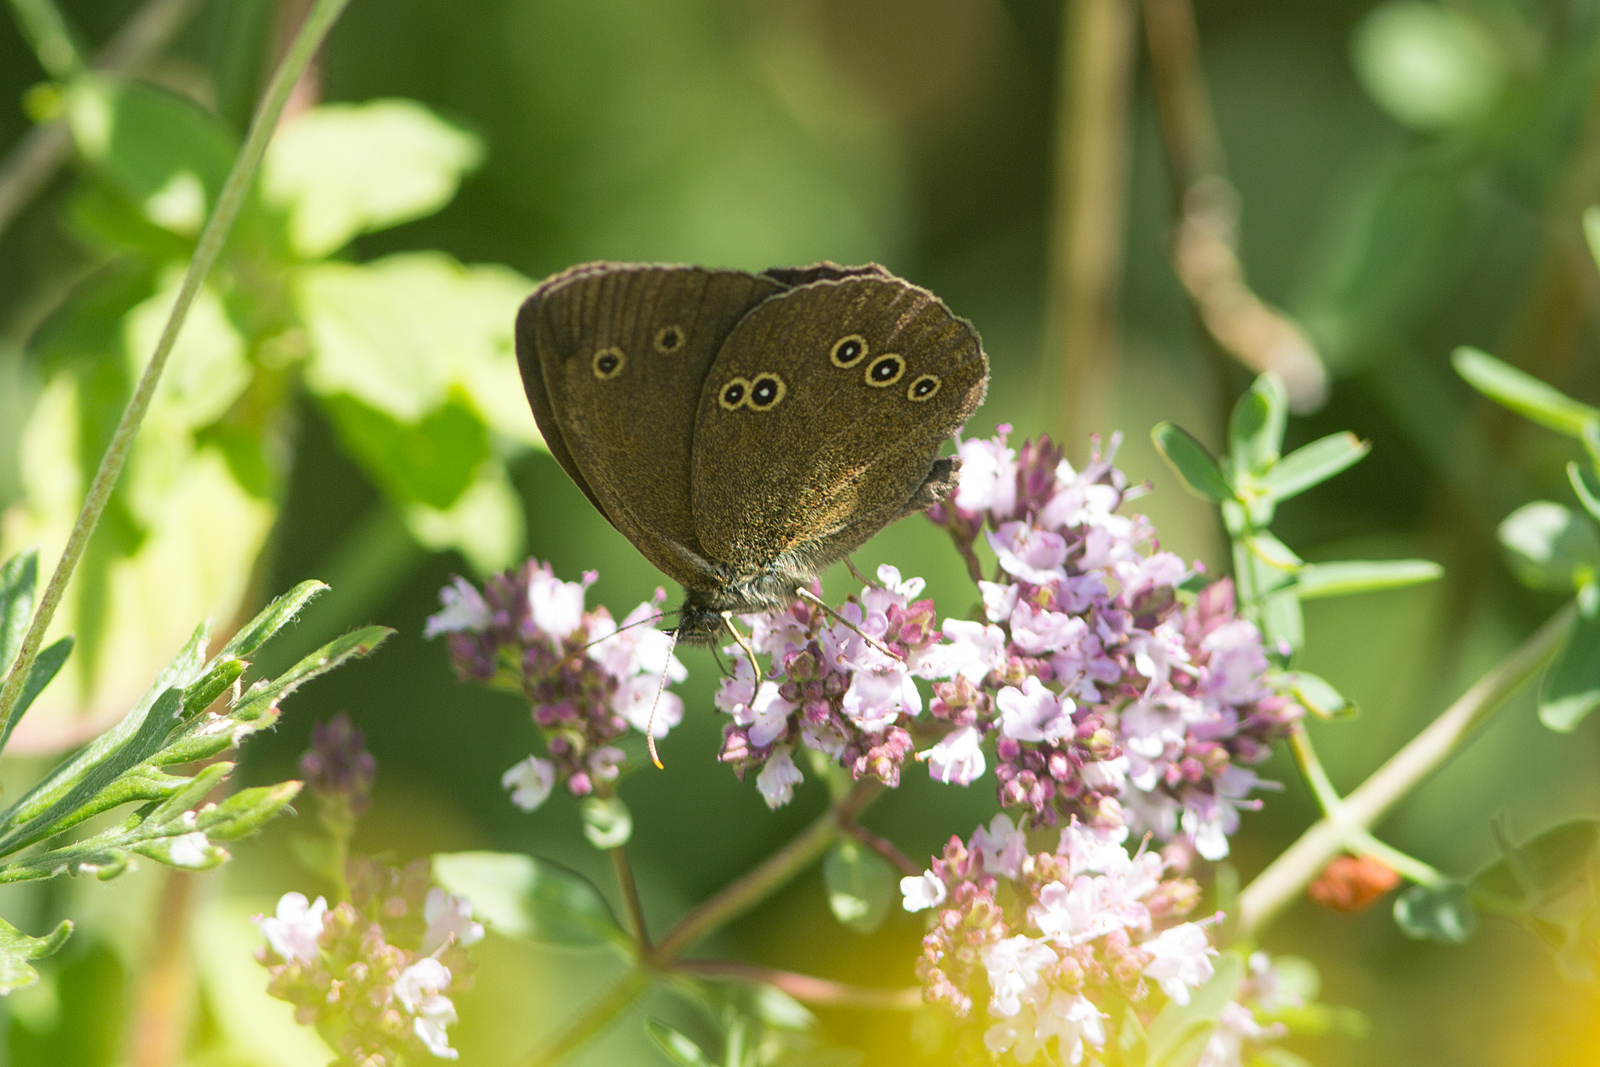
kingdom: Animalia
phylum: Arthropoda
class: Insecta
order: Lepidoptera
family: Nymphalidae
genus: Aphantopus
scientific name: Aphantopus hyperantus
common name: Ringlet
